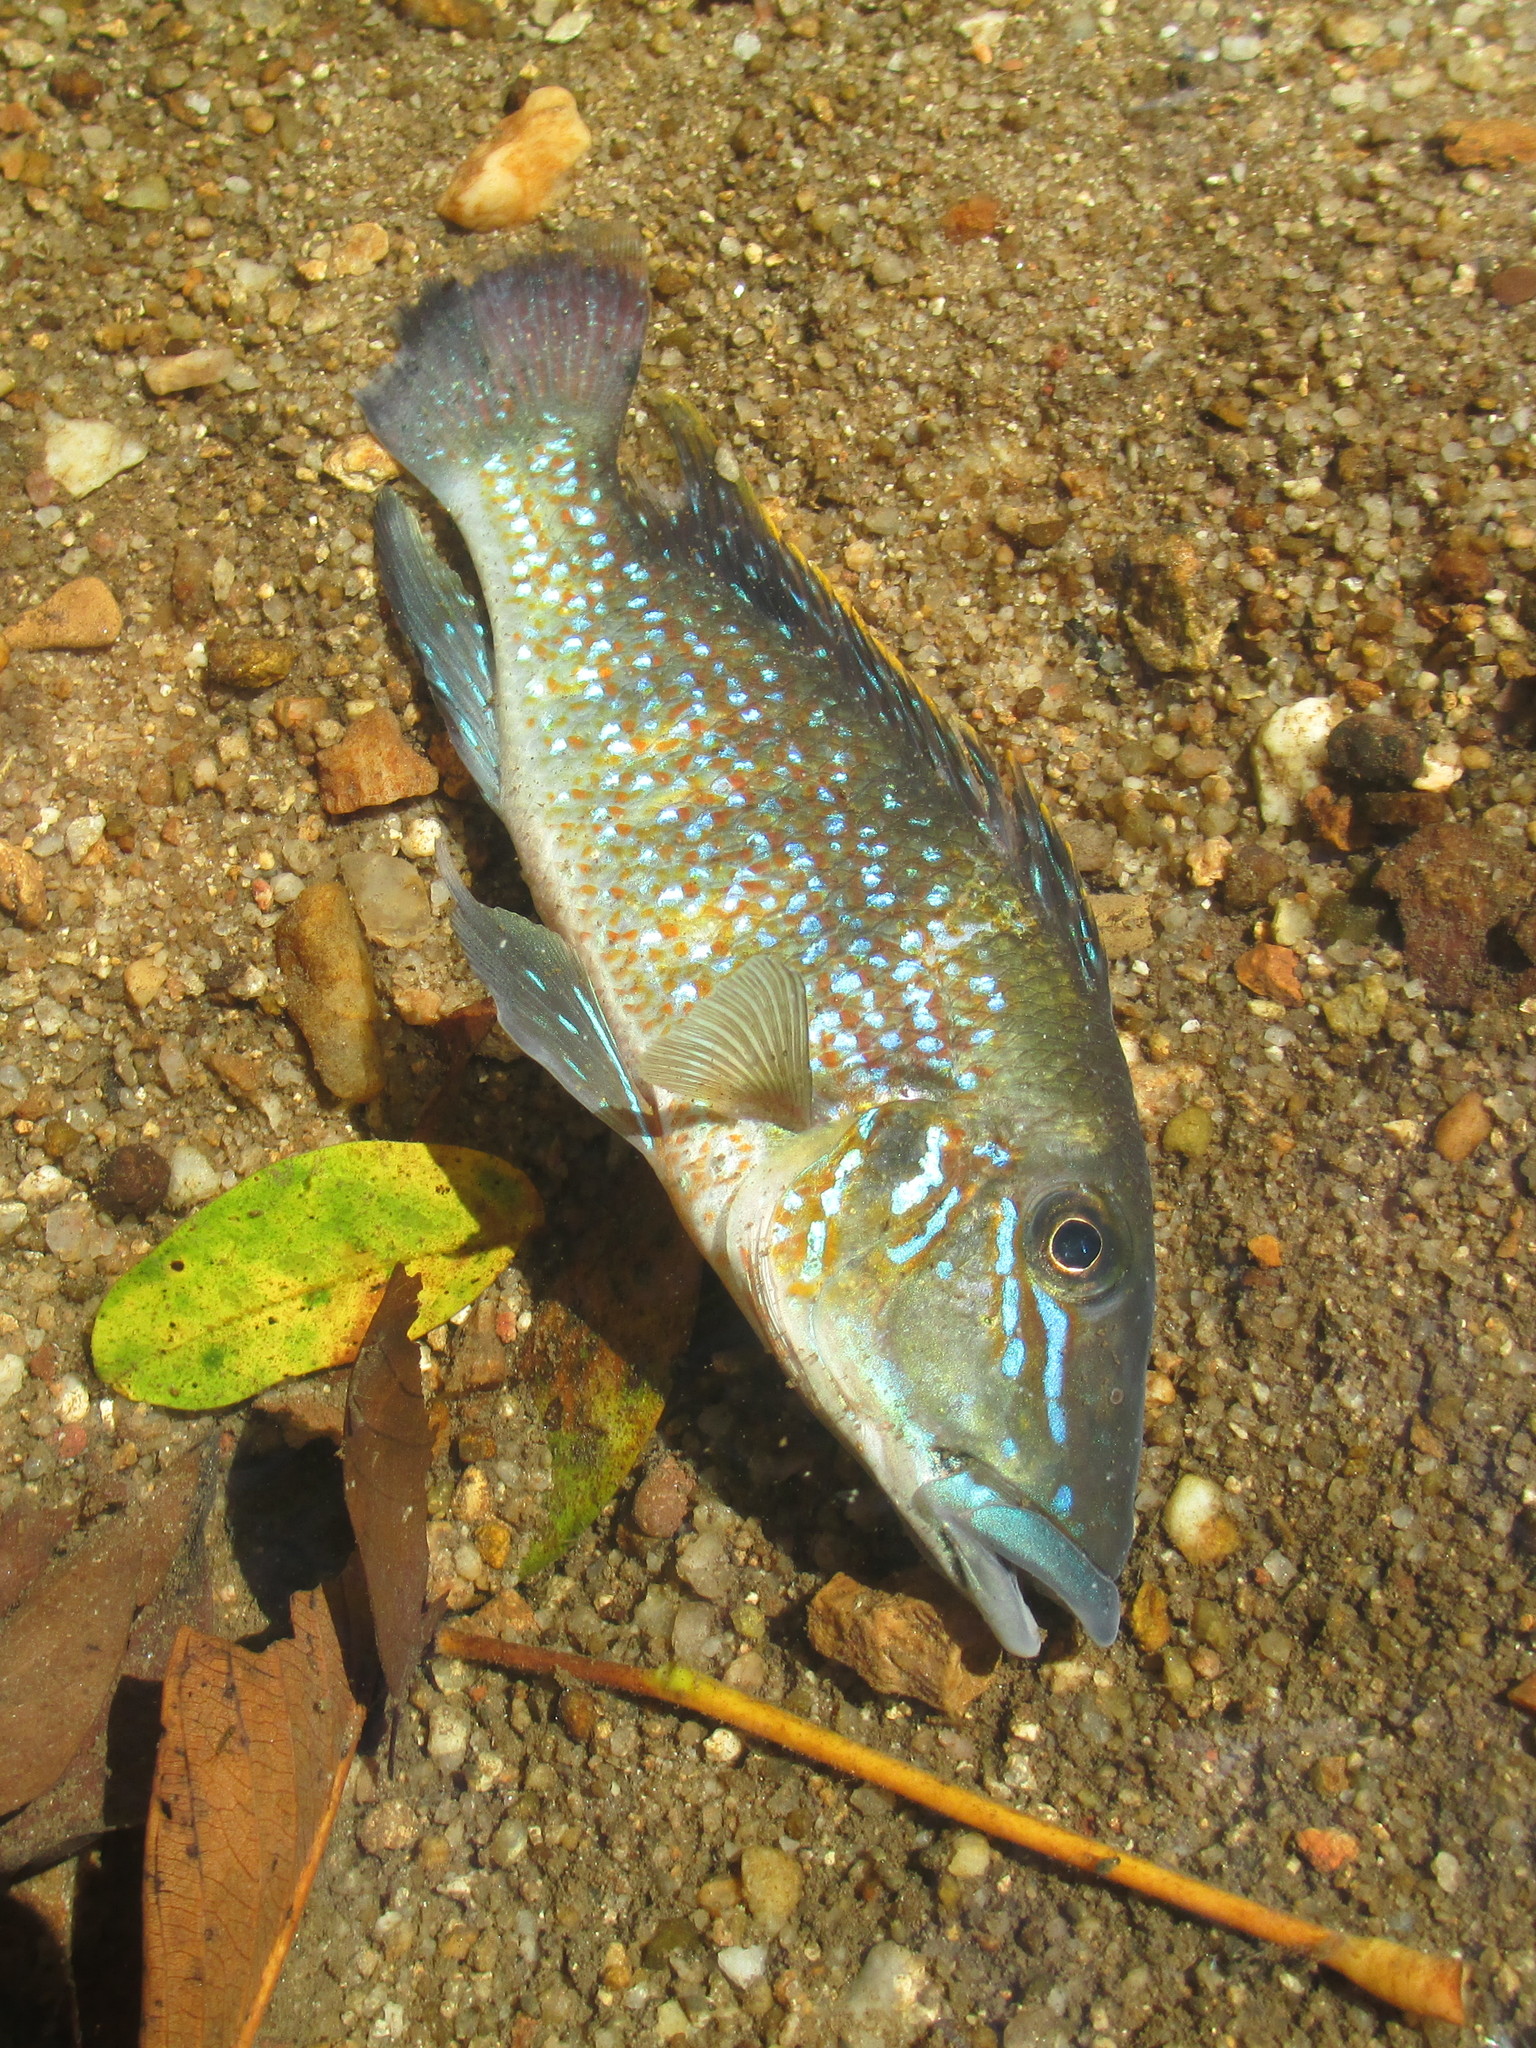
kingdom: Animalia
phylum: Chordata
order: Perciformes
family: Cichlidae
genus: Retroculus
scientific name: Retroculus lapidifer
